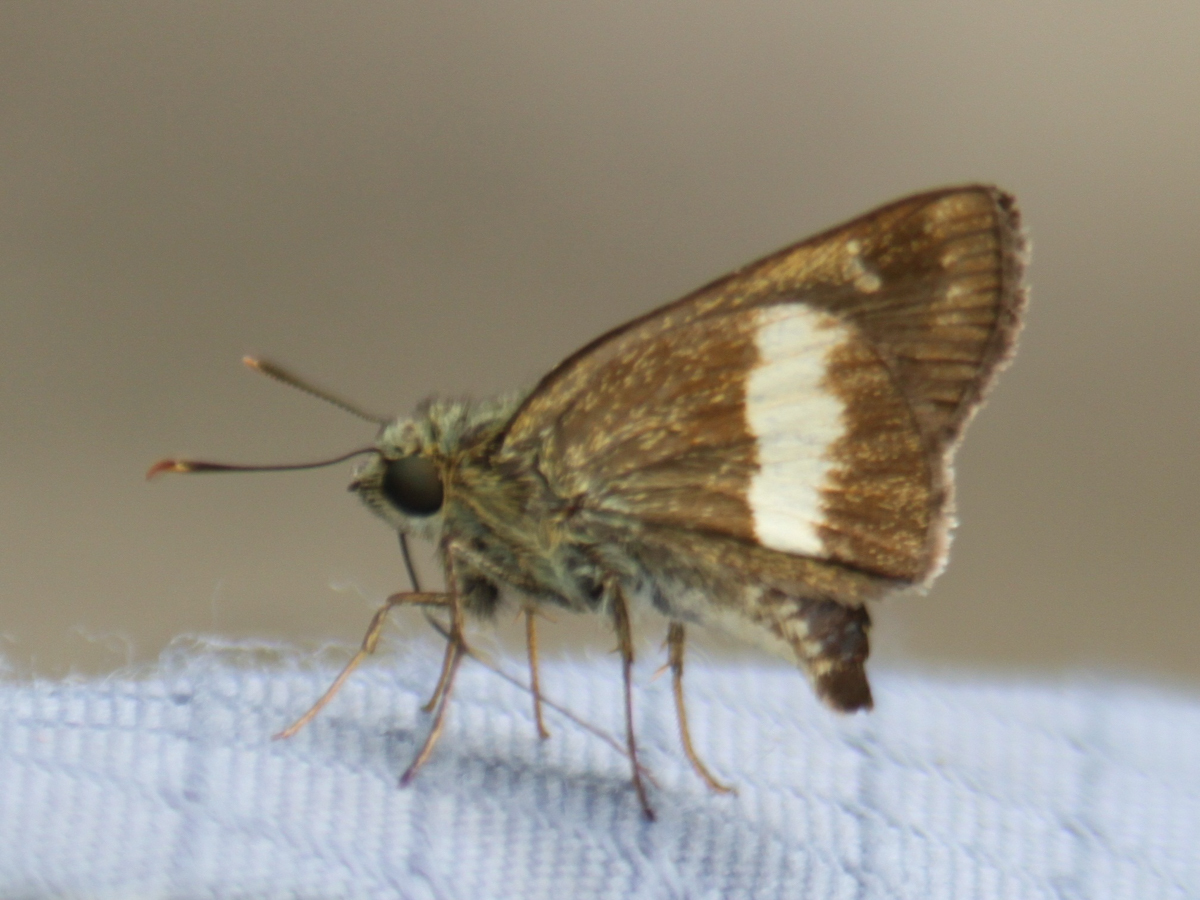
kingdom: Animalia
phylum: Arthropoda
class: Insecta
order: Lepidoptera
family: Hesperiidae
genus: Halpe
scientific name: Halpe zola
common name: Long-banded ace
